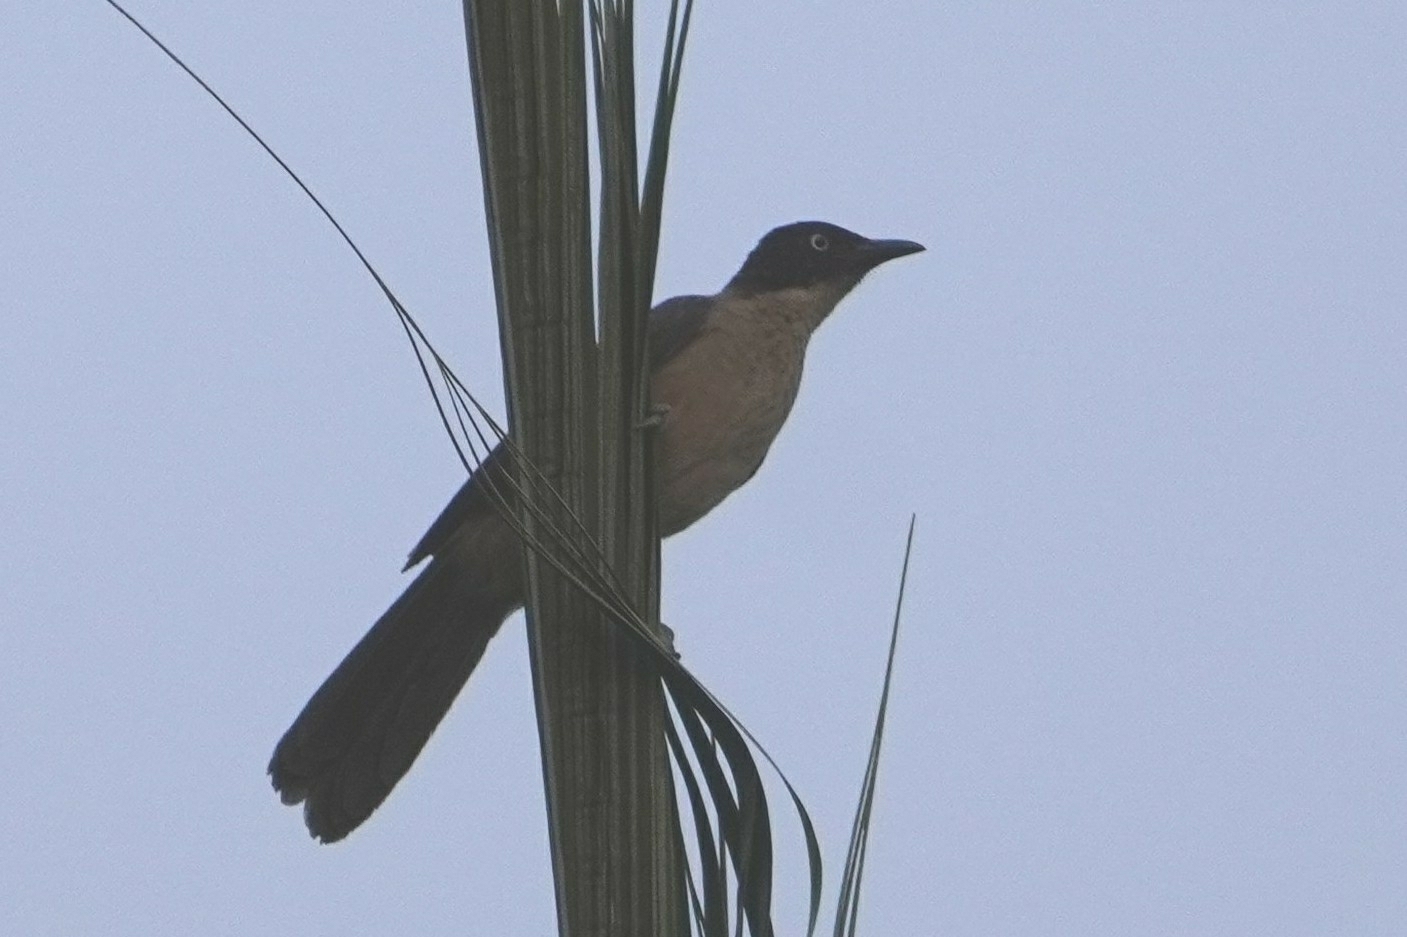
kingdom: Animalia
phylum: Chordata
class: Aves
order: Passeriformes
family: Leiothrichidae
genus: Turdoides
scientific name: Turdoides reinwardtii
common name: Blackcap babbler
